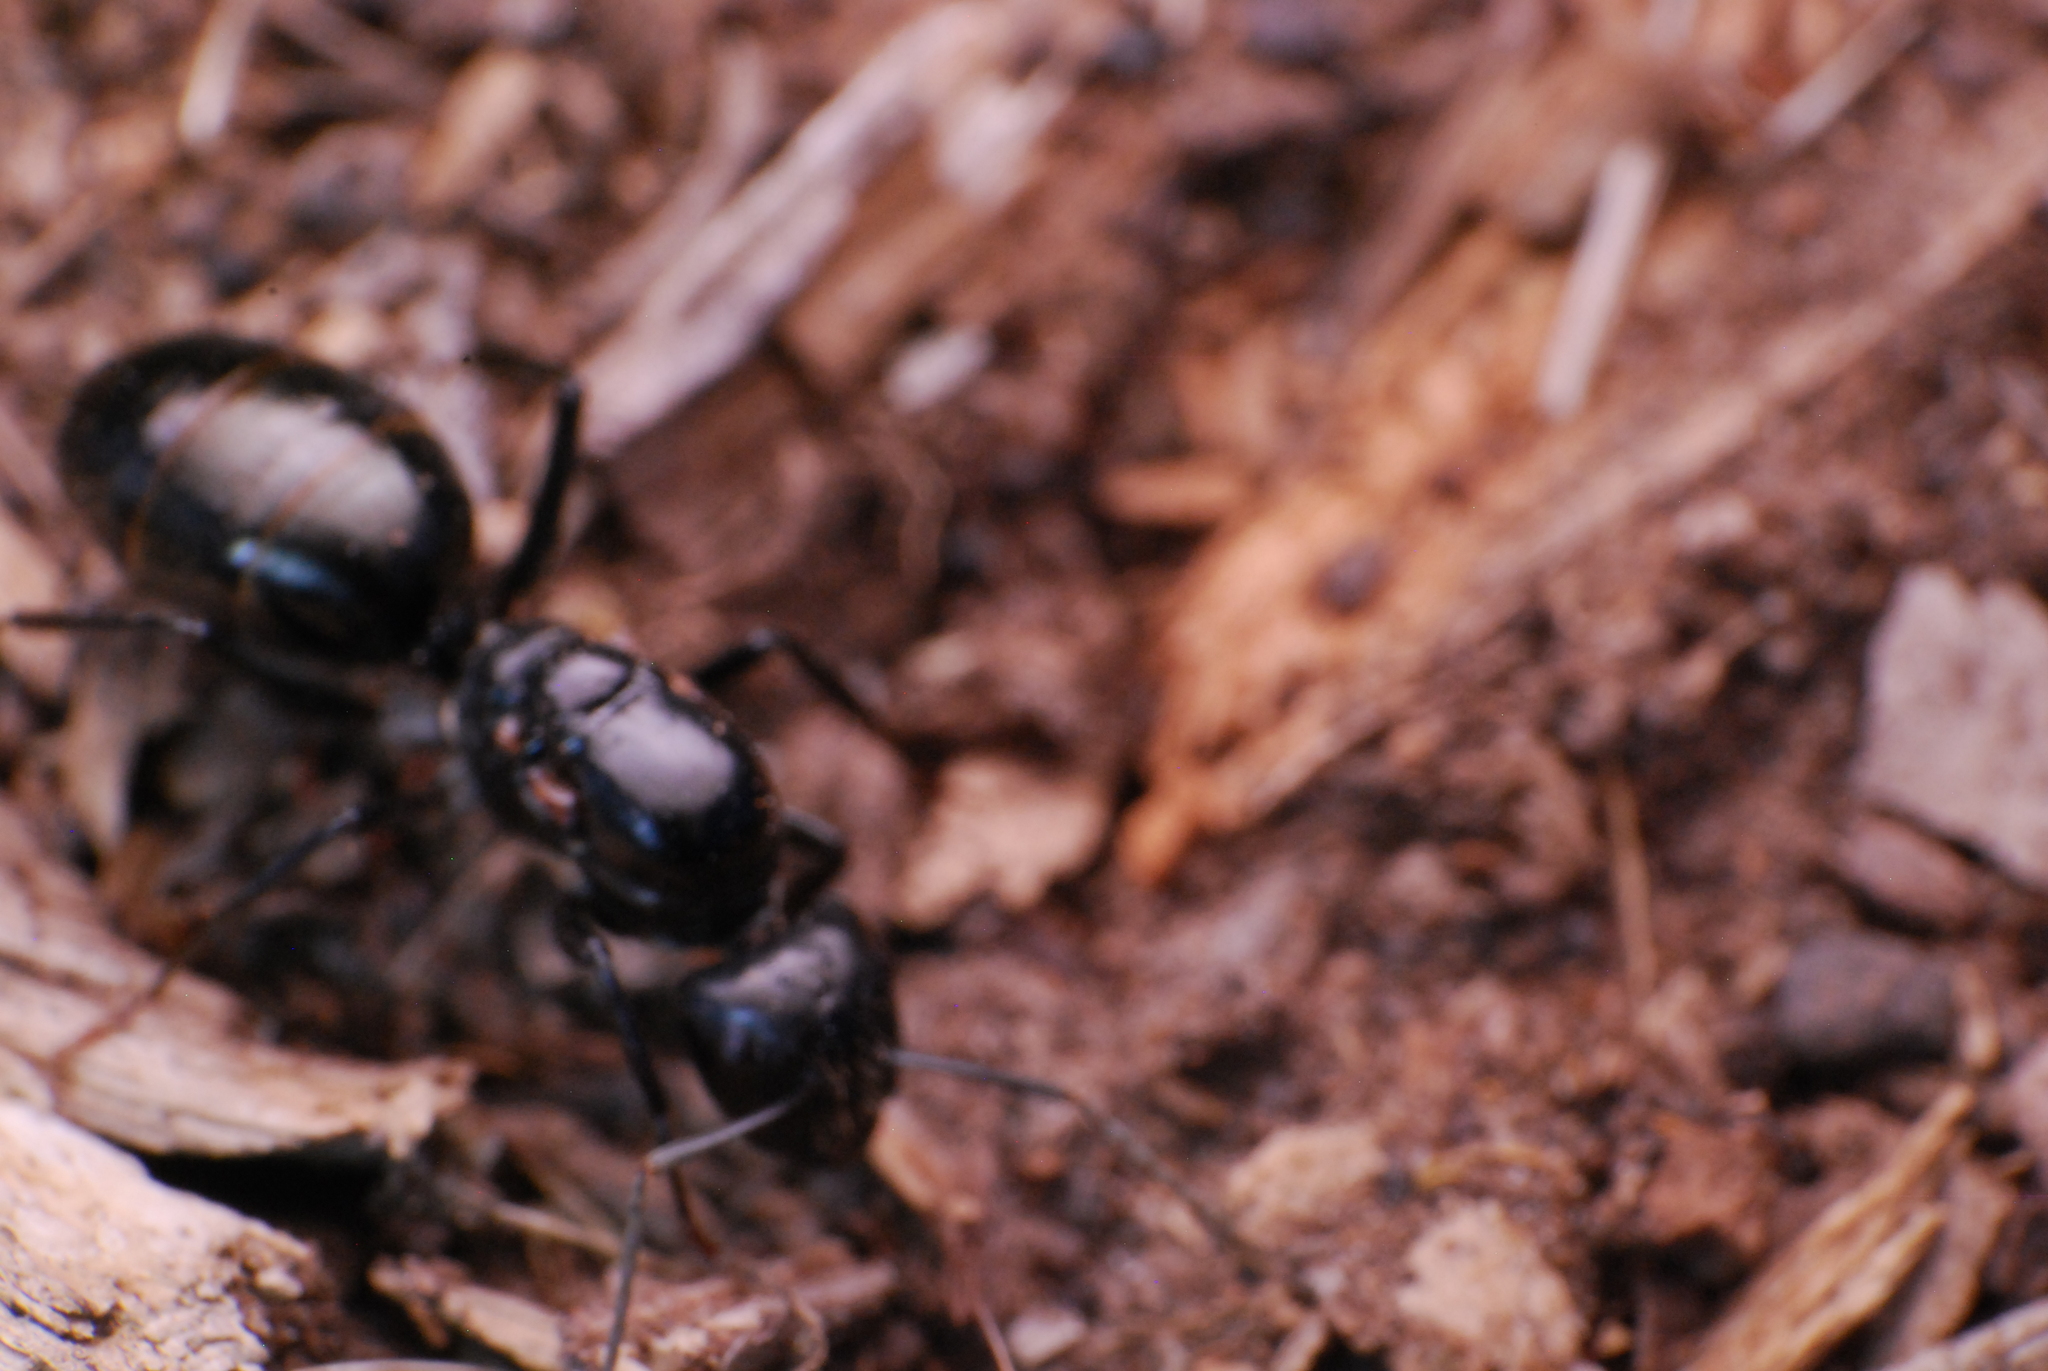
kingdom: Animalia
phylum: Arthropoda
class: Insecta
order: Hymenoptera
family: Formicidae
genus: Camponotus
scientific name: Camponotus aeneopilosus
